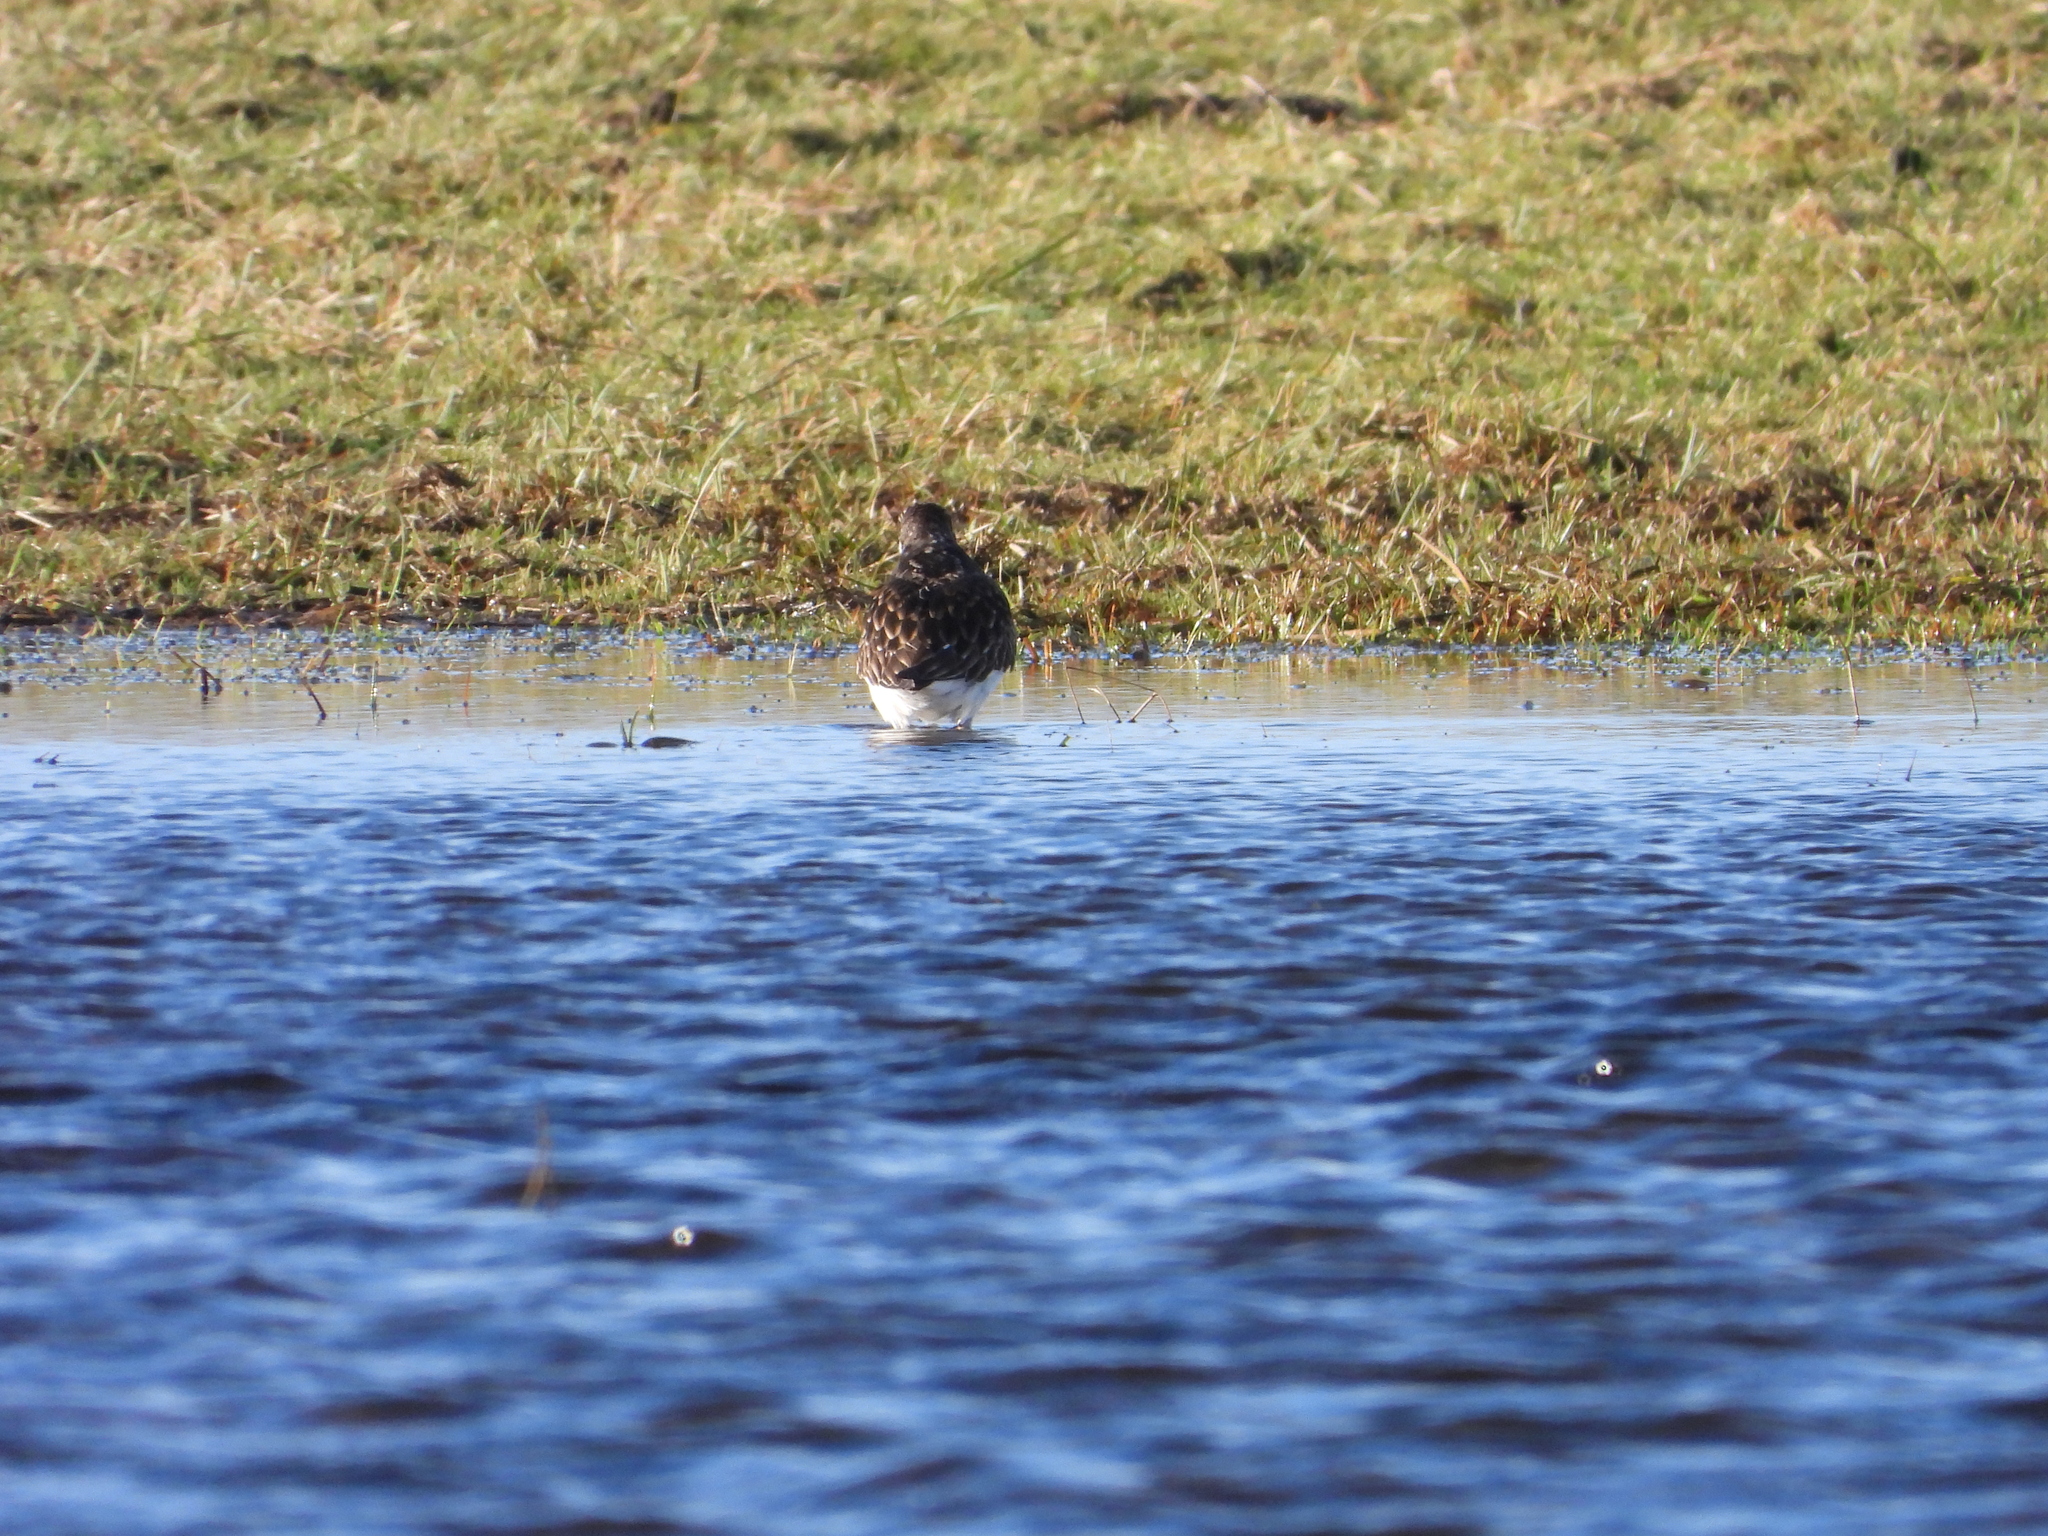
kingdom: Animalia
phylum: Chordata
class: Aves
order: Charadriiformes
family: Scolopacidae
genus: Arenaria
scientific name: Arenaria interpres
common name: Ruddy turnstone
